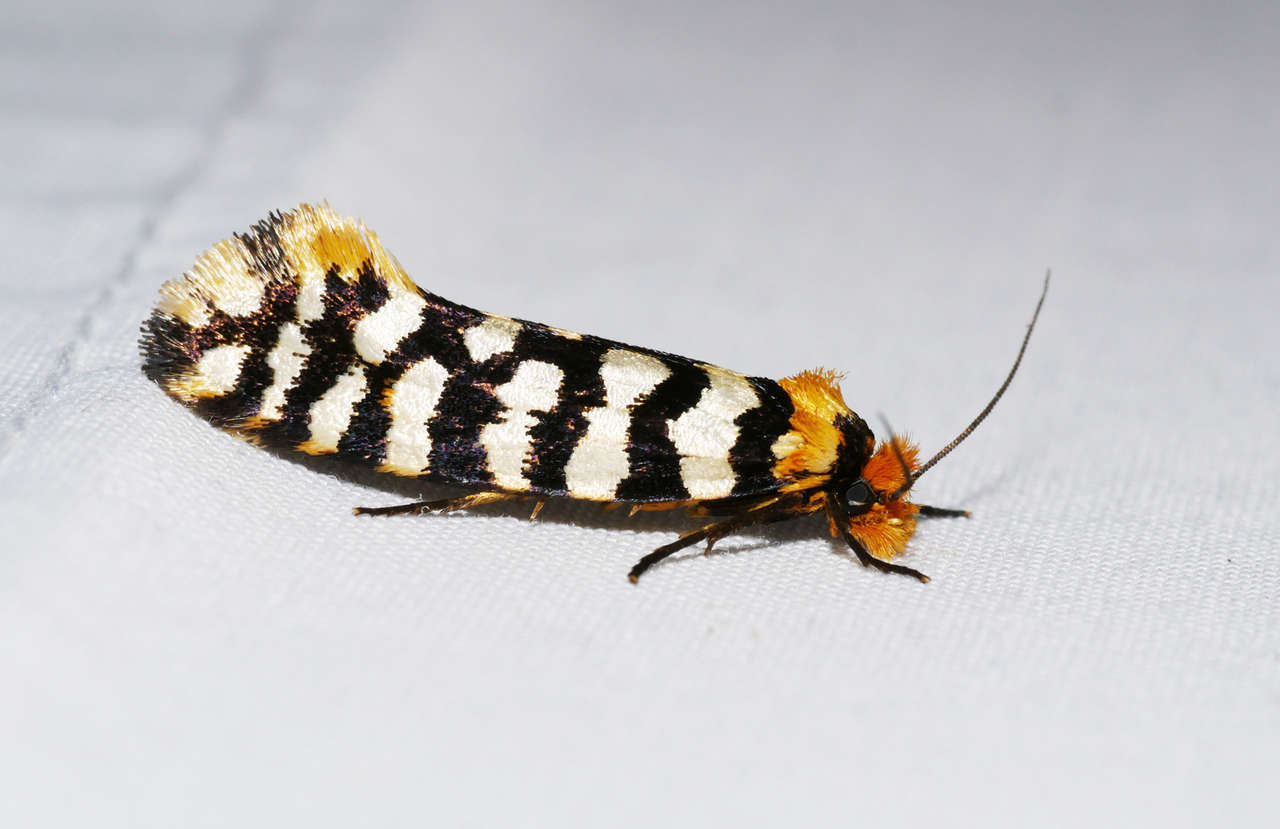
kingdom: Animalia
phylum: Arthropoda
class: Insecta
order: Lepidoptera
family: Tineidae
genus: Moerarchis
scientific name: Moerarchis australasiella
